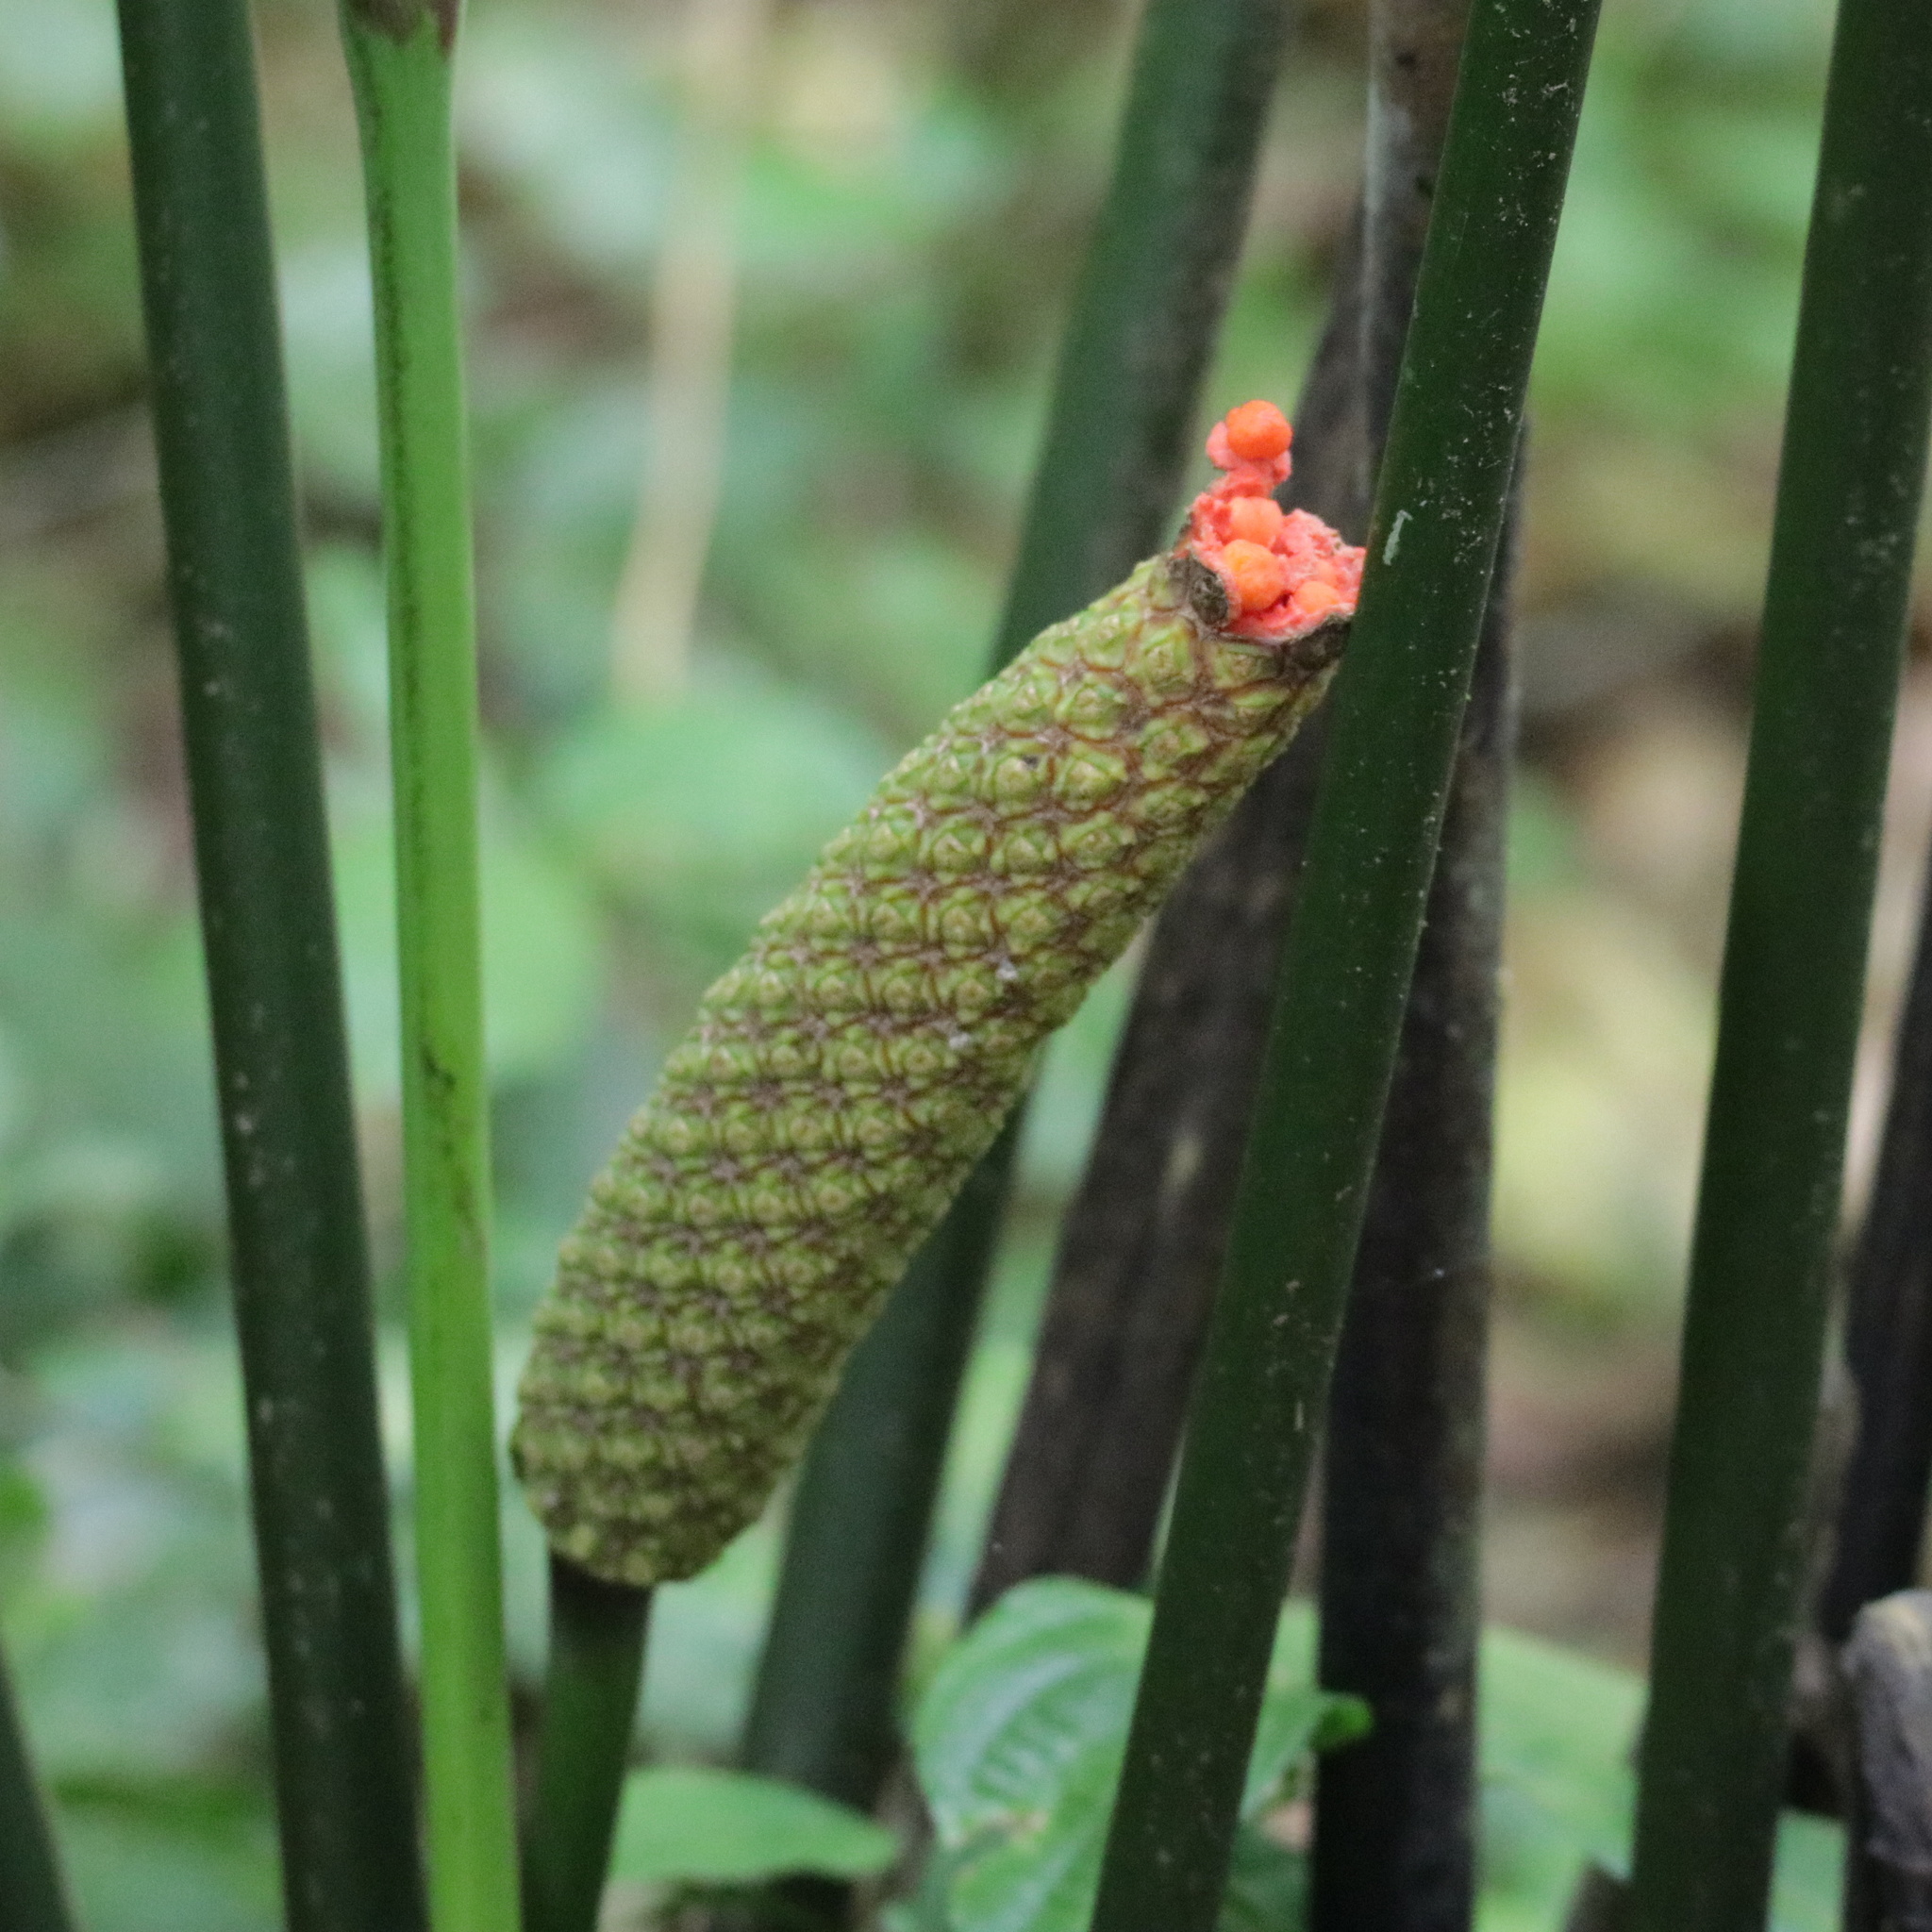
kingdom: Plantae
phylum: Tracheophyta
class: Liliopsida
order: Pandanales
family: Cyclanthaceae
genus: Carludovica
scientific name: Carludovica palmata
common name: Panama hat plant
